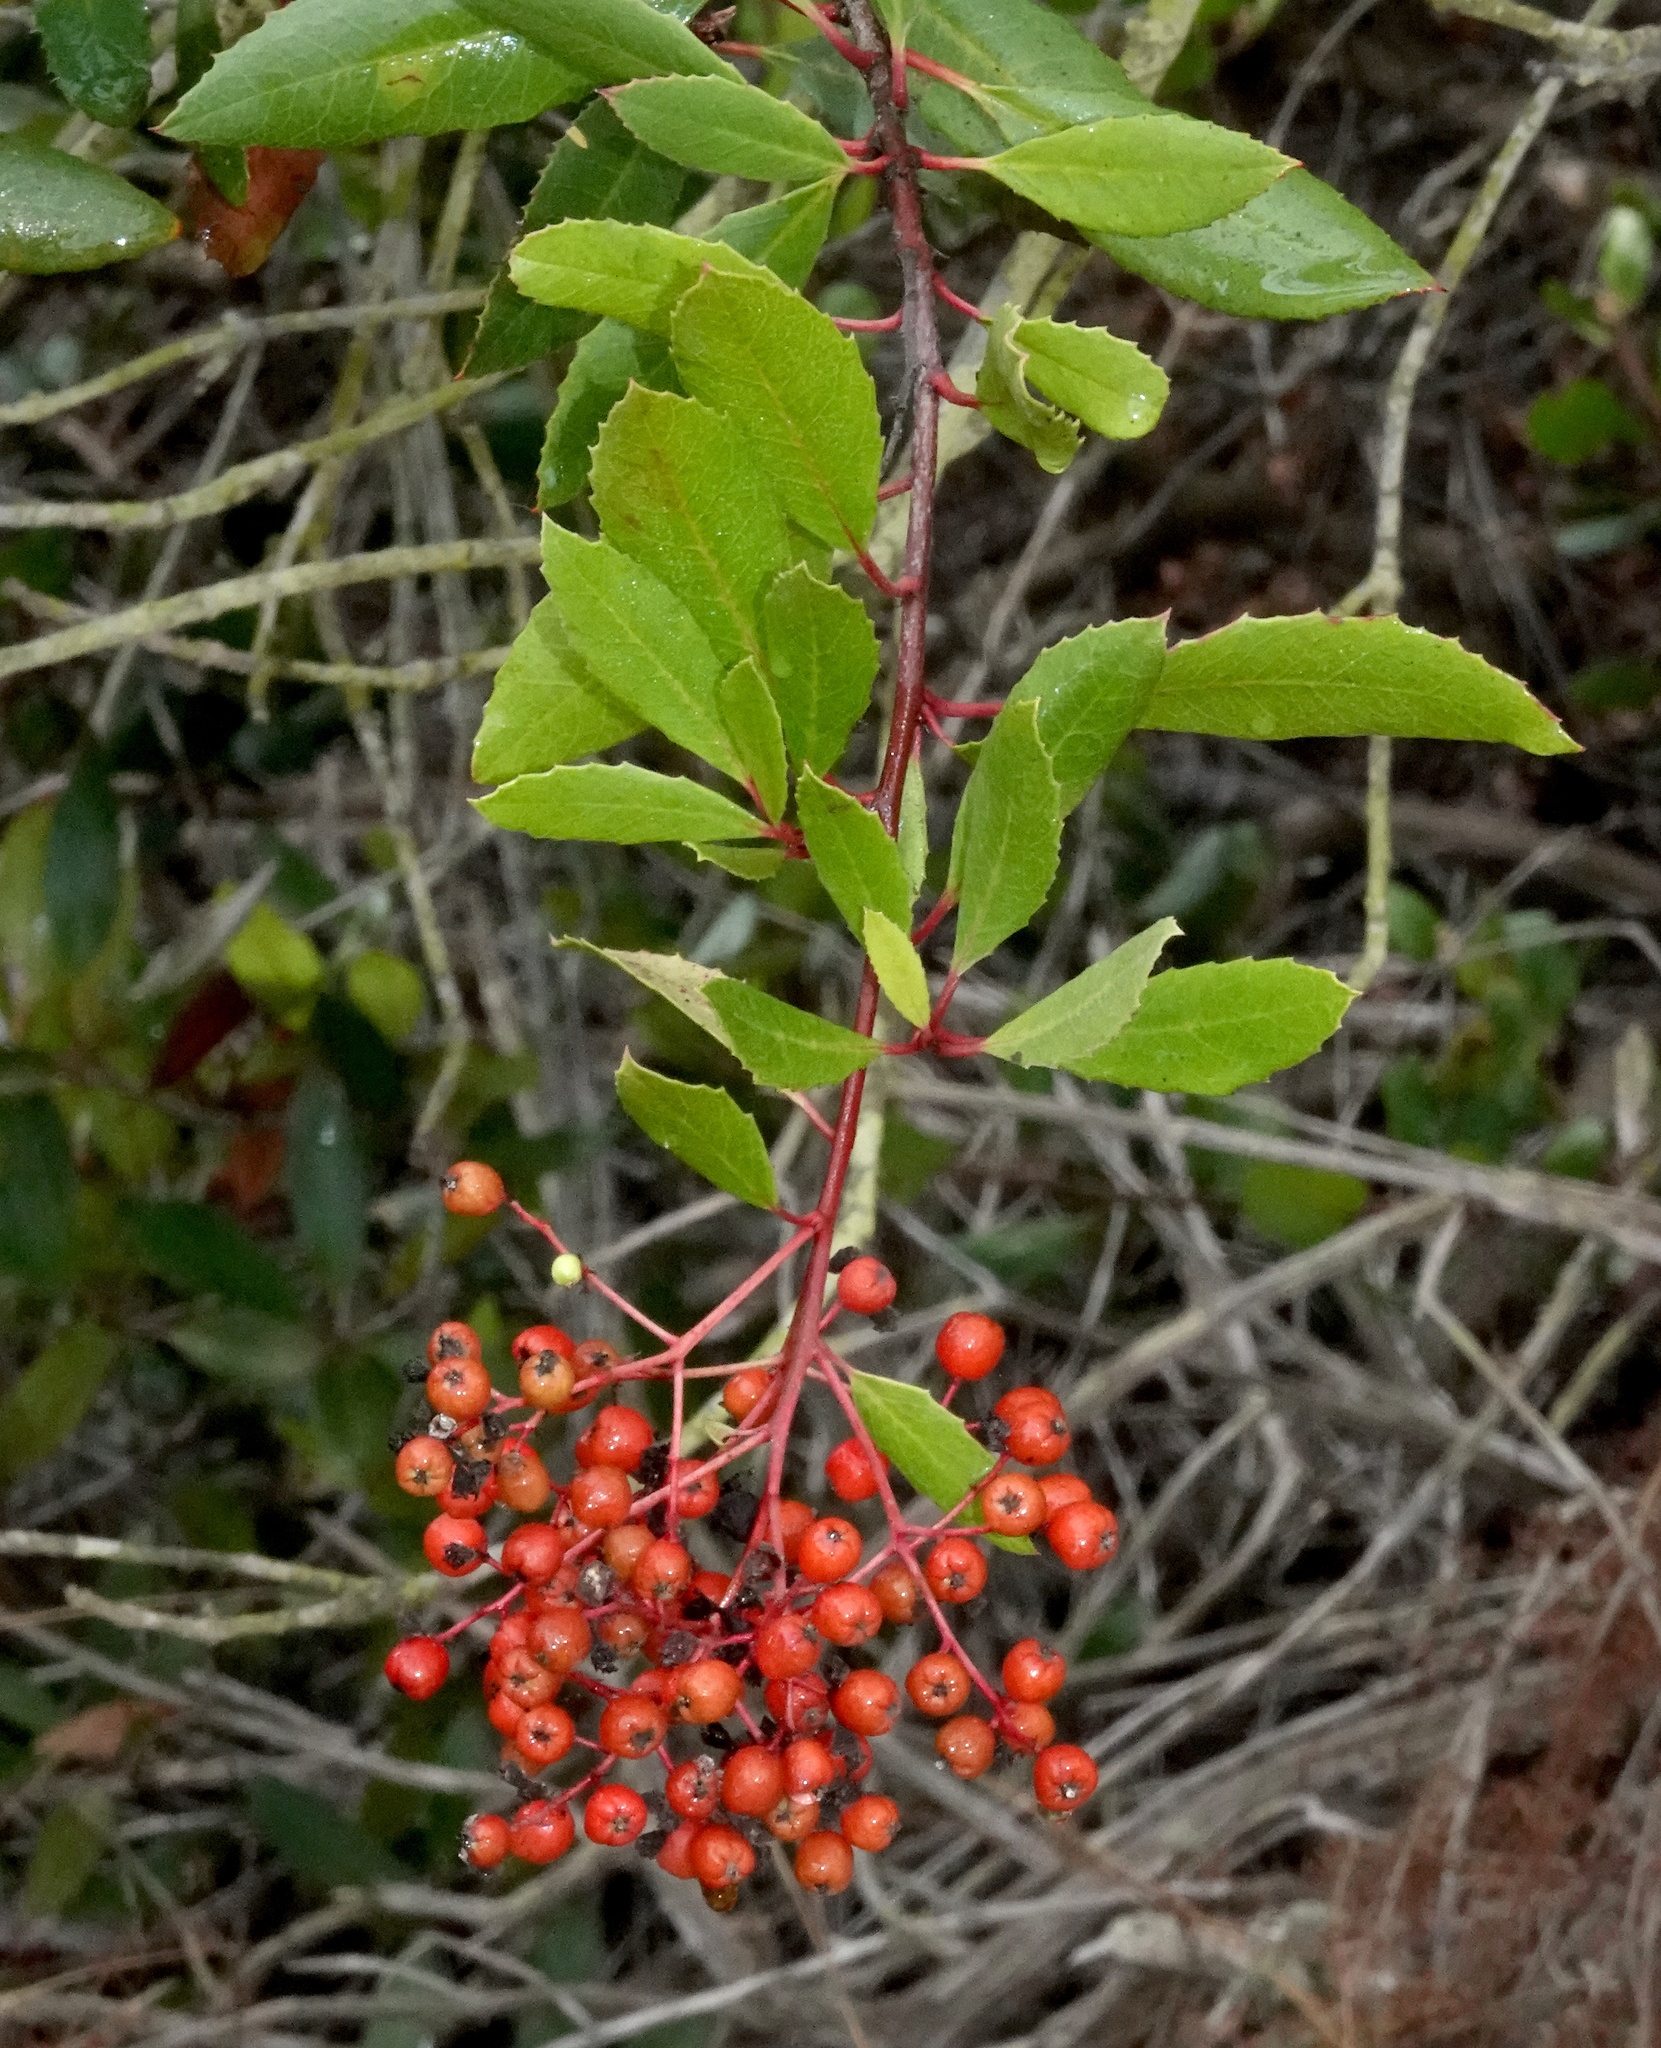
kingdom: Plantae
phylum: Tracheophyta
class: Magnoliopsida
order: Rosales
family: Rosaceae
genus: Heteromeles
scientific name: Heteromeles arbutifolia
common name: California-holly
